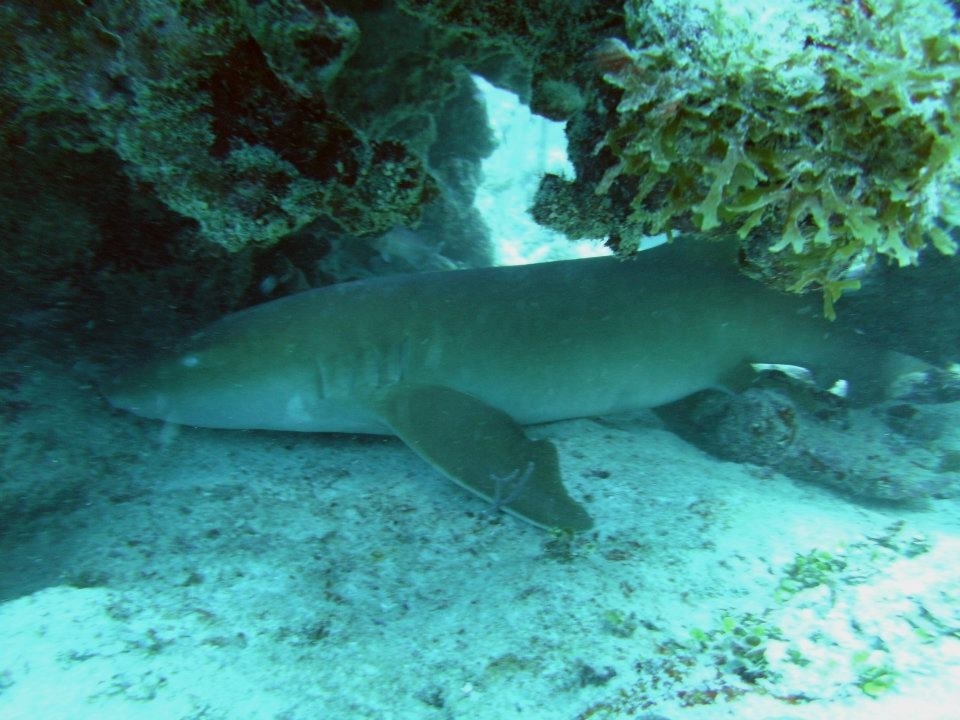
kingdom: Animalia
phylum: Chordata
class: Elasmobranchii
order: Orectolobiformes
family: Ginglymostomatidae
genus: Ginglymostoma
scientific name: Ginglymostoma cirratum
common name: Nurse shark
